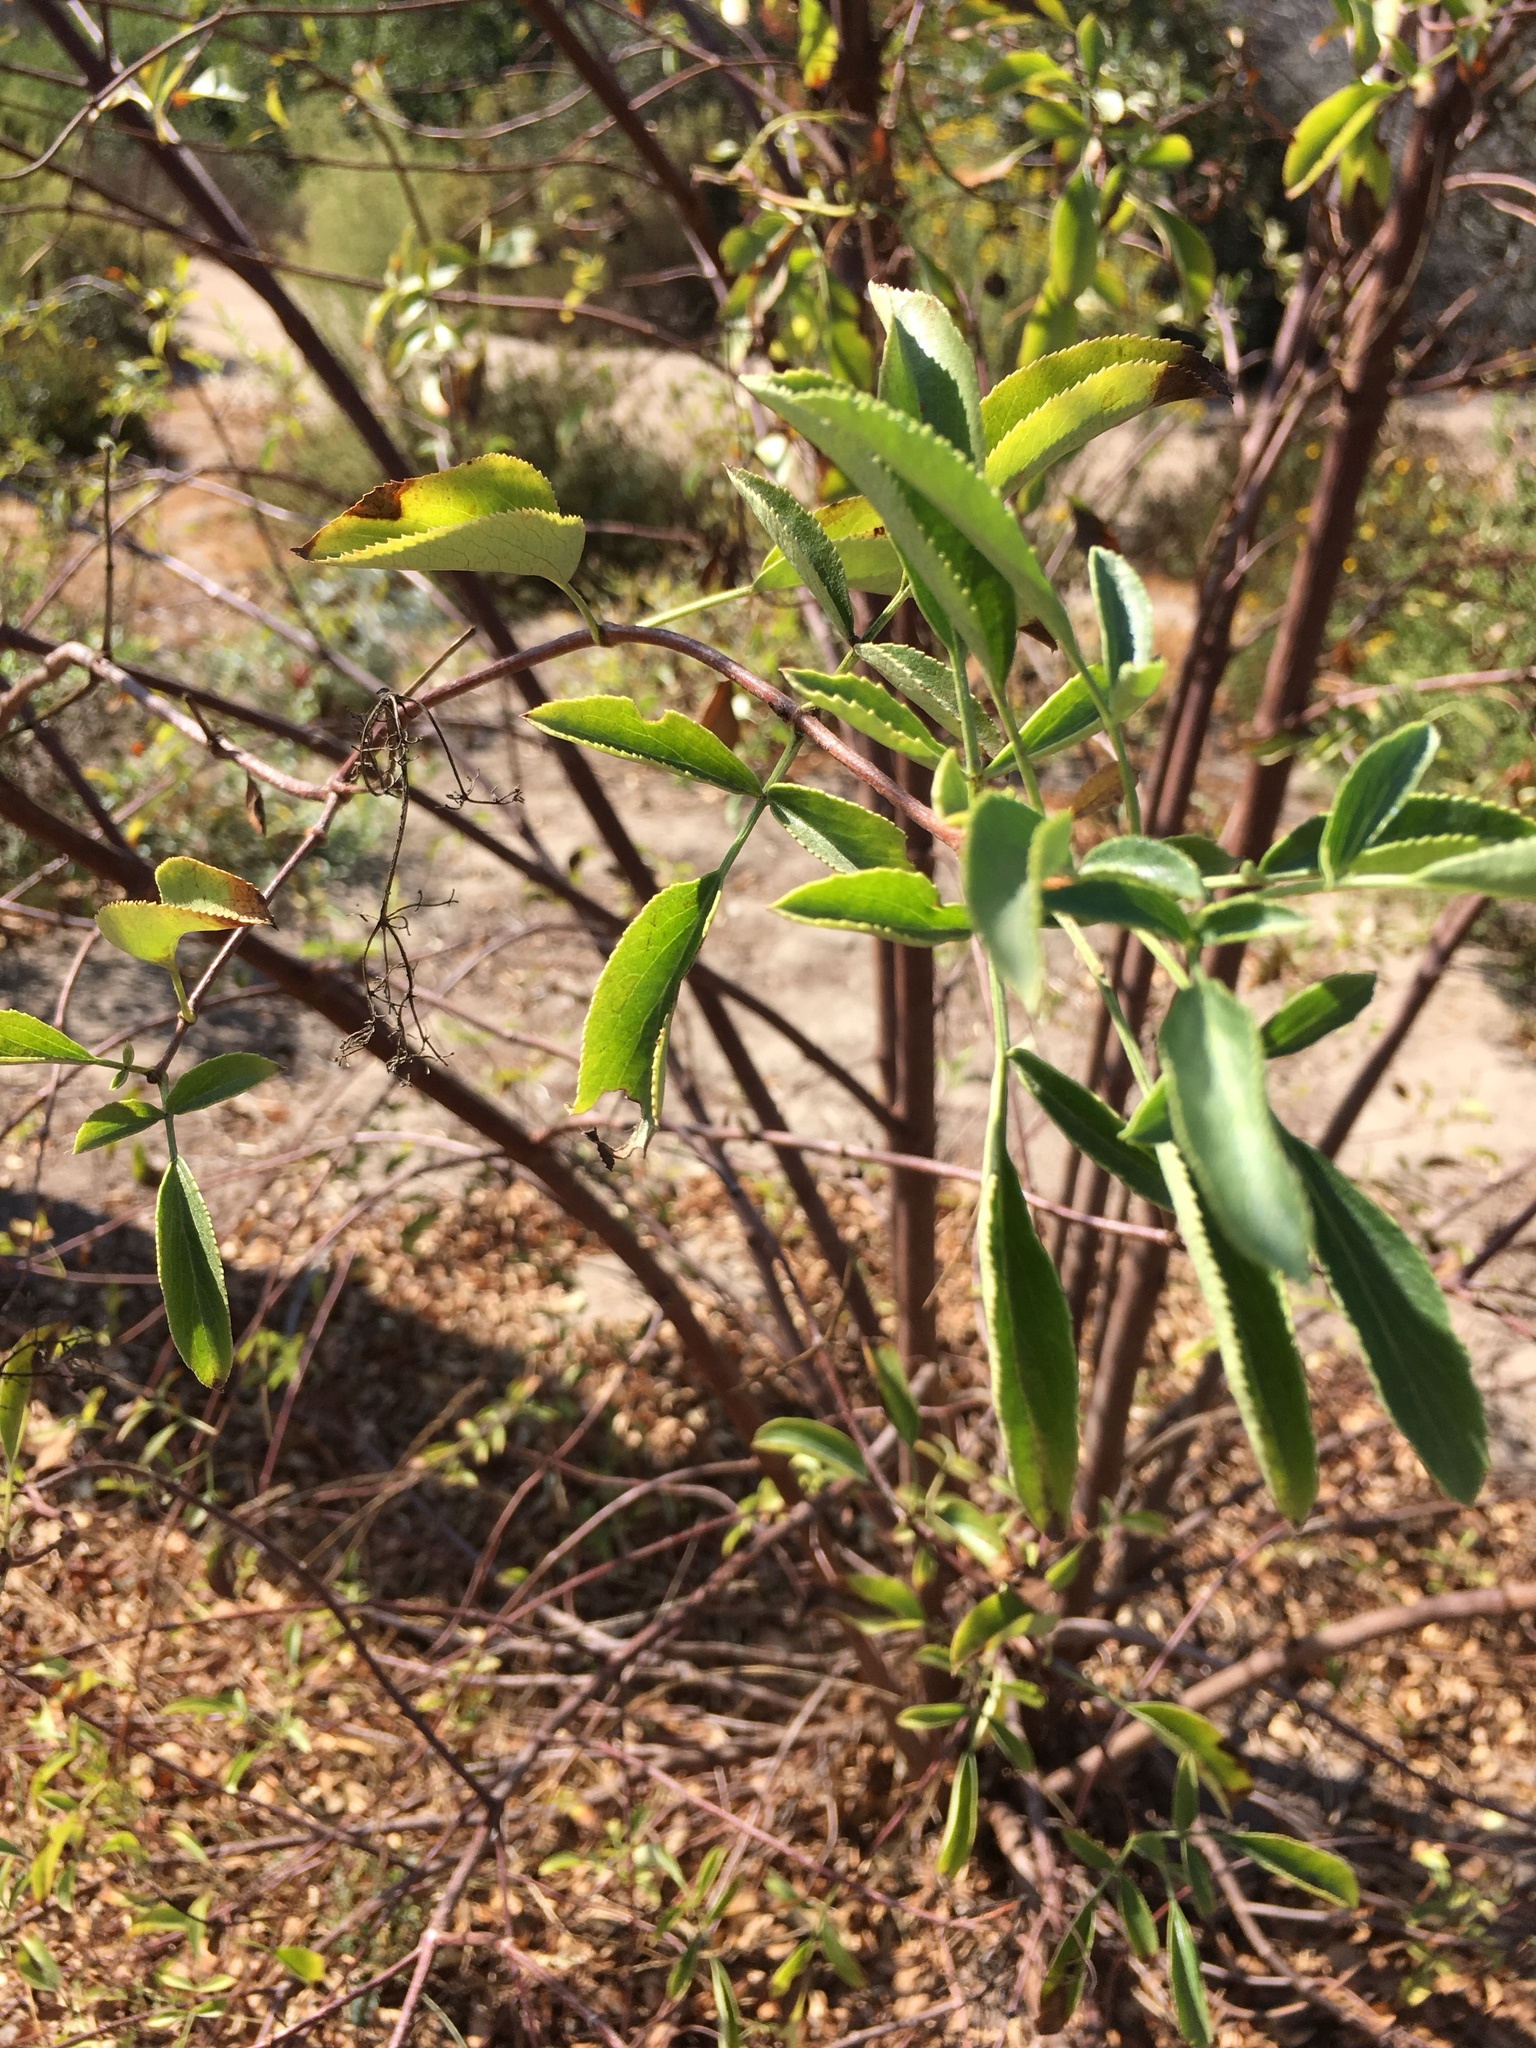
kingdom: Plantae
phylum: Tracheophyta
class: Magnoliopsida
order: Dipsacales
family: Viburnaceae
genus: Sambucus
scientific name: Sambucus cerulea
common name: Blue elder
